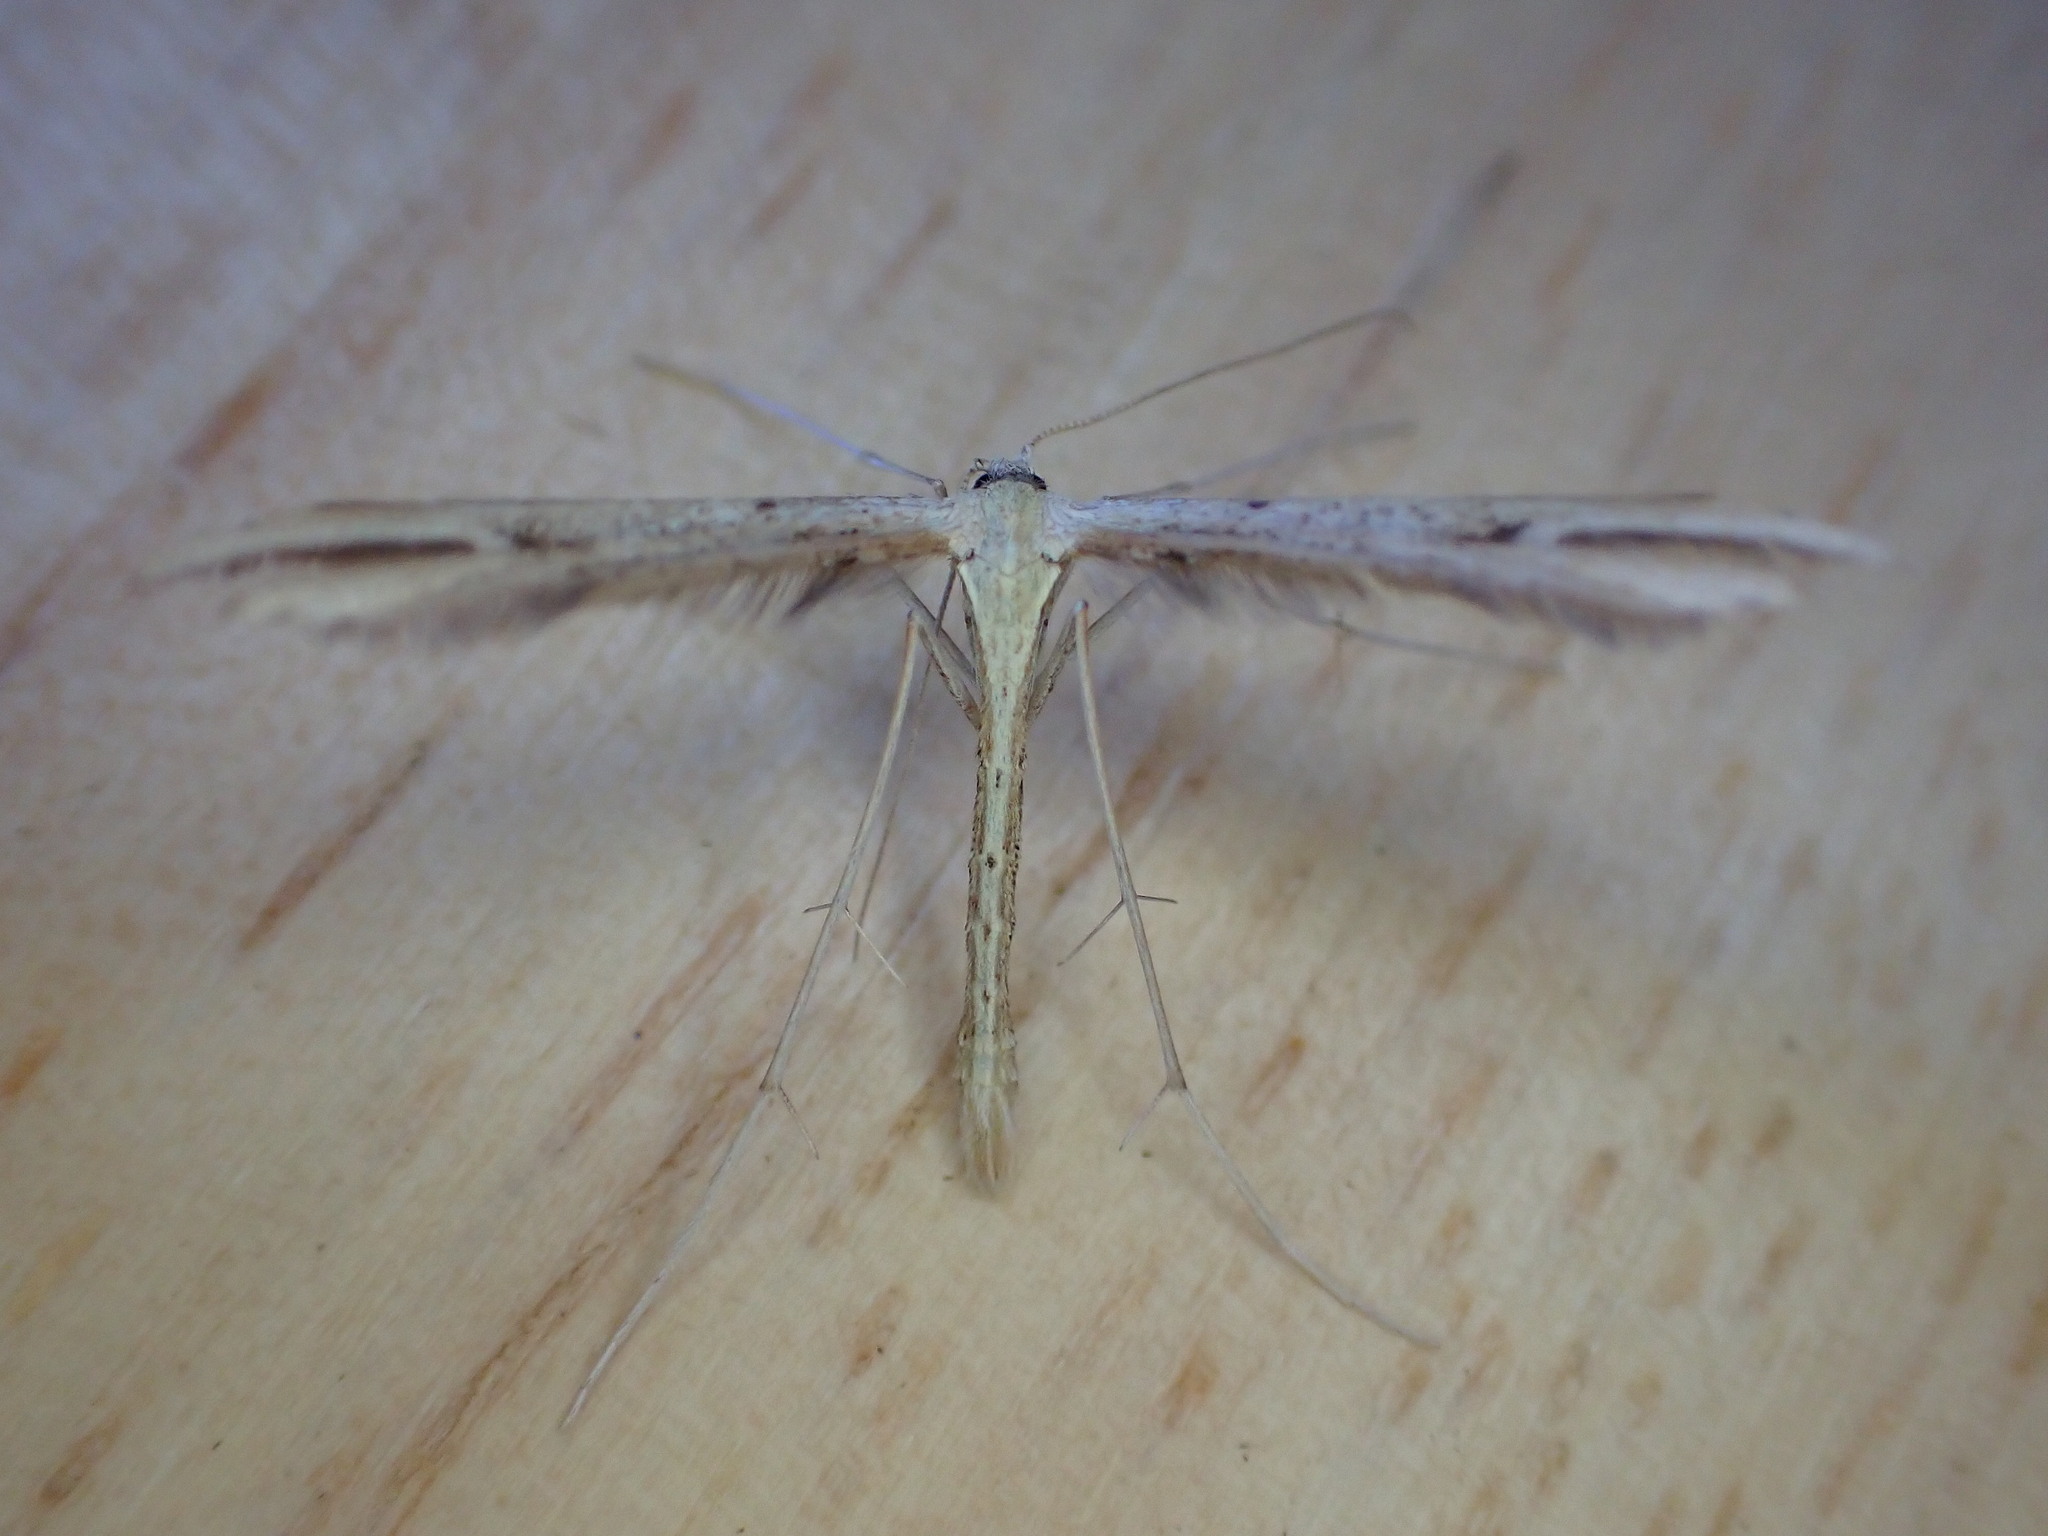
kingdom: Animalia
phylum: Arthropoda
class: Insecta
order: Lepidoptera
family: Pterophoridae
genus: Emmelina
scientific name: Emmelina monodactyla
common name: Common plume
